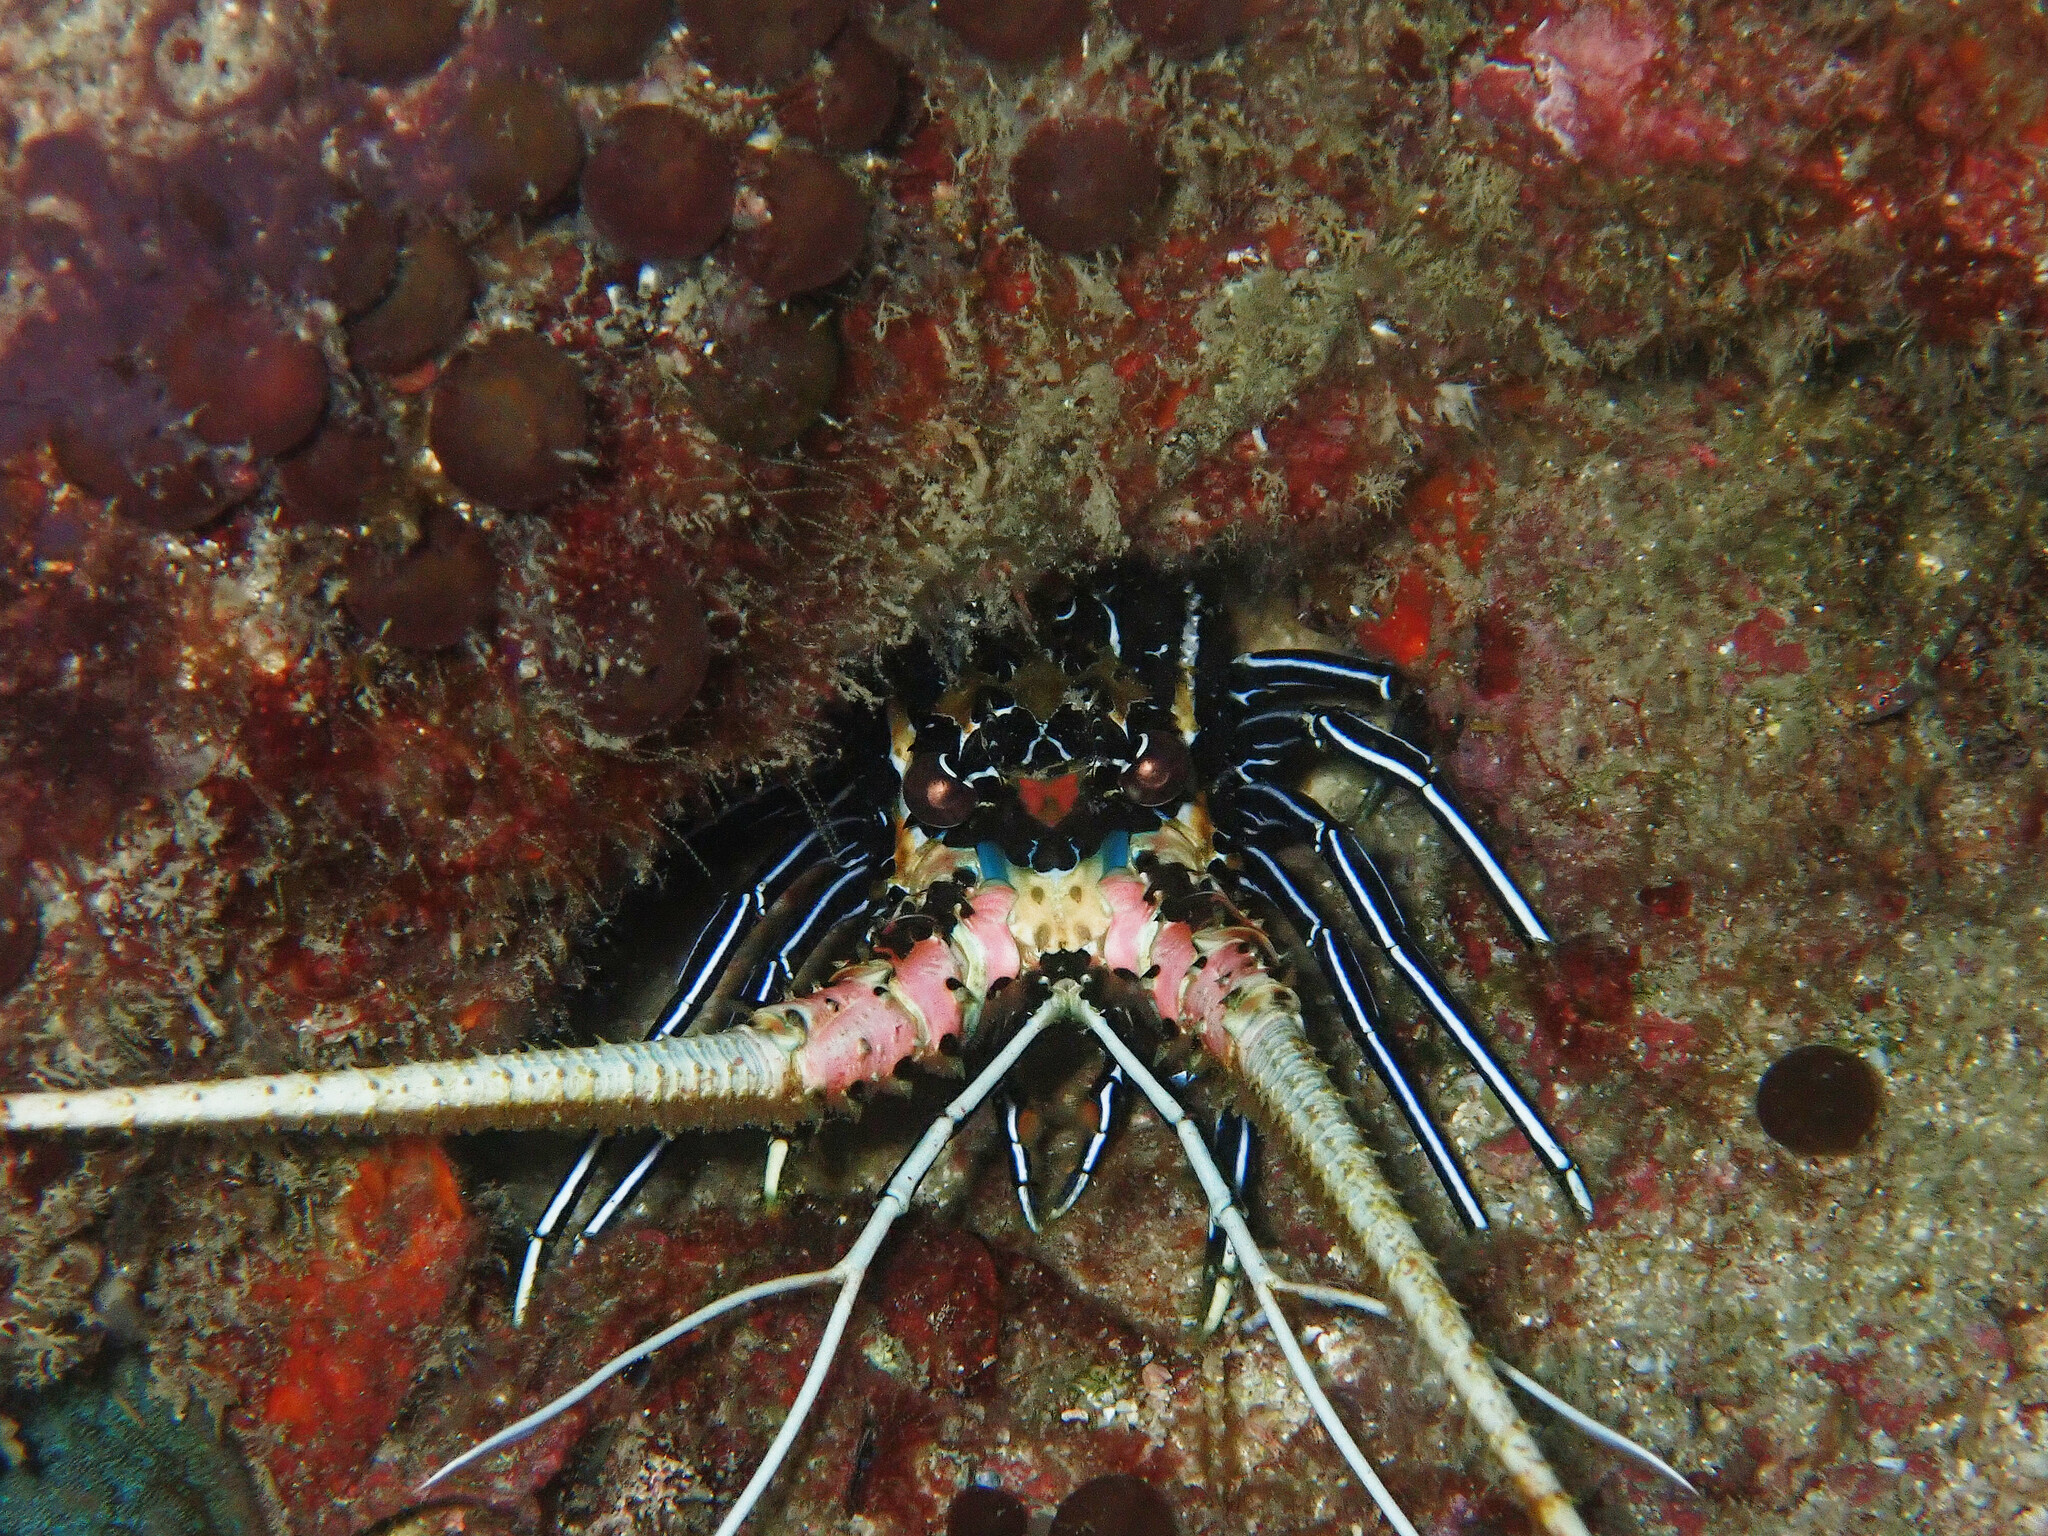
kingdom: Animalia
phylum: Arthropoda
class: Malacostraca
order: Decapoda
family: Palinuridae
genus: Panulirus
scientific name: Panulirus versicolor
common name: Painted spiny lobster
